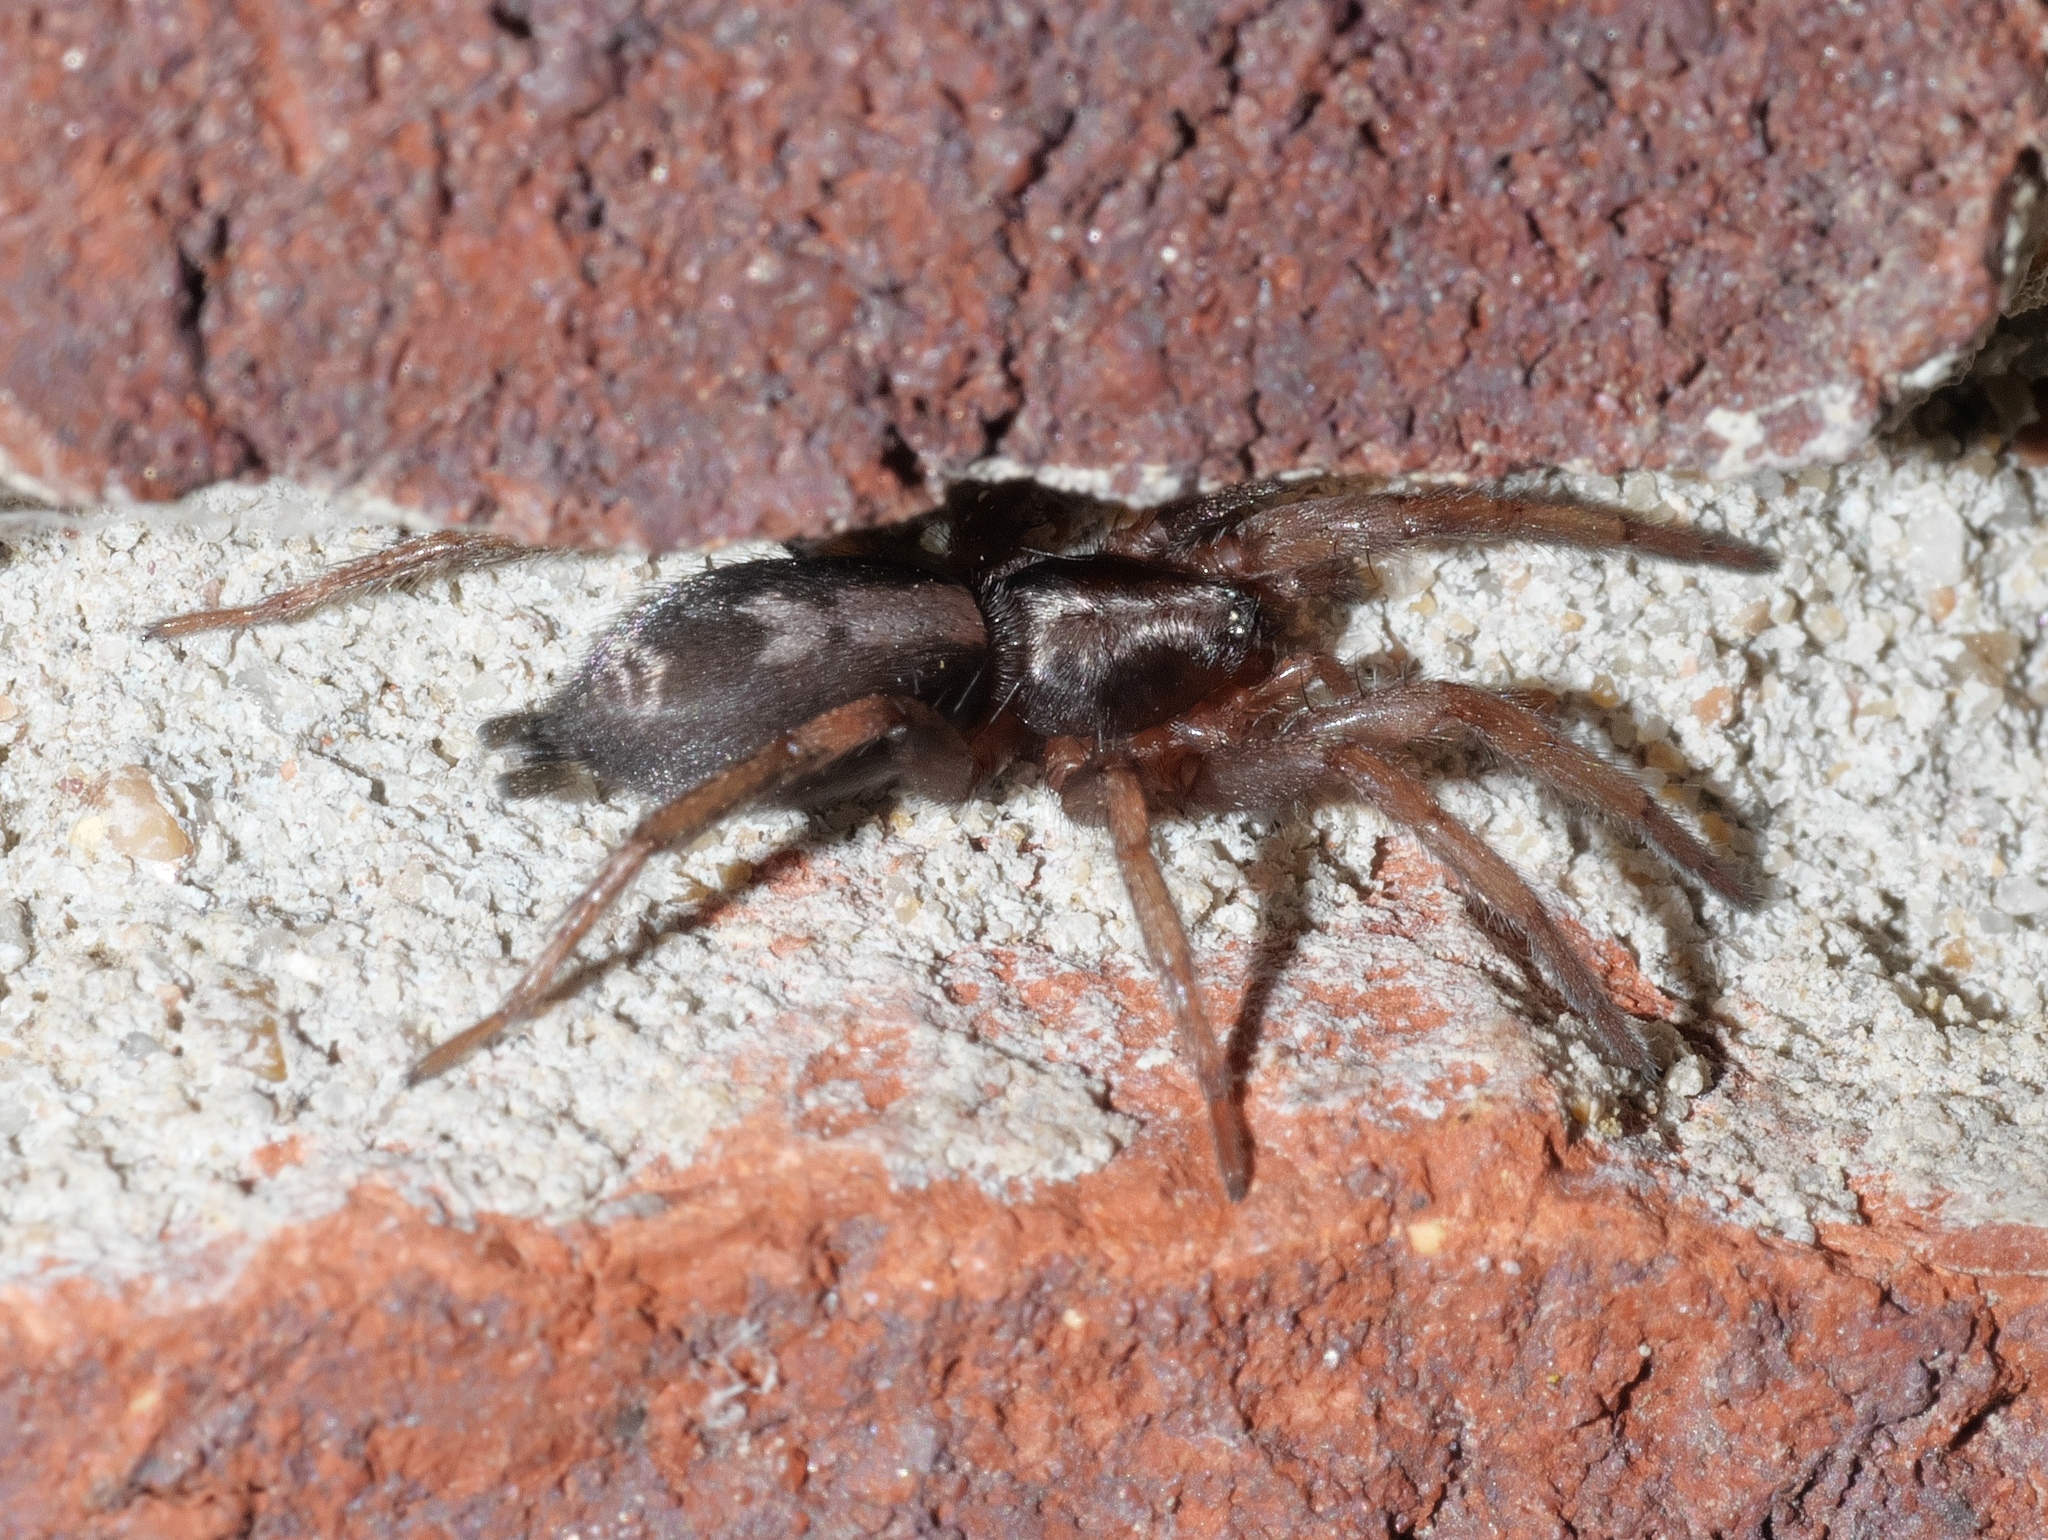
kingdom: Animalia
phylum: Arthropoda
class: Arachnida
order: Araneae
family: Gnaphosidae
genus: Herpyllus
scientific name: Herpyllus ecclesiasticus
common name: Eastern parson spider
